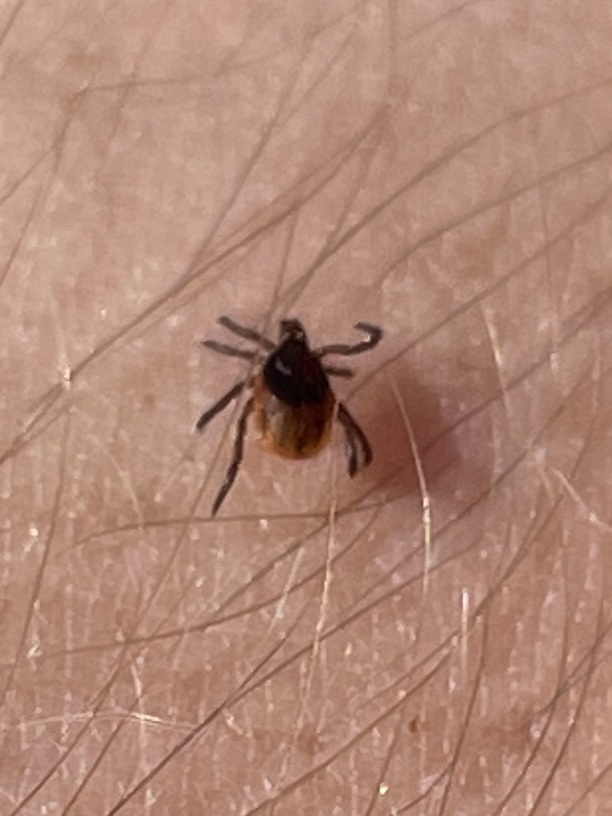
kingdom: Animalia
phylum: Arthropoda
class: Arachnida
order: Ixodida
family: Ixodidae
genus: Ixodes
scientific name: Ixodes scapularis
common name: Black legged tick
